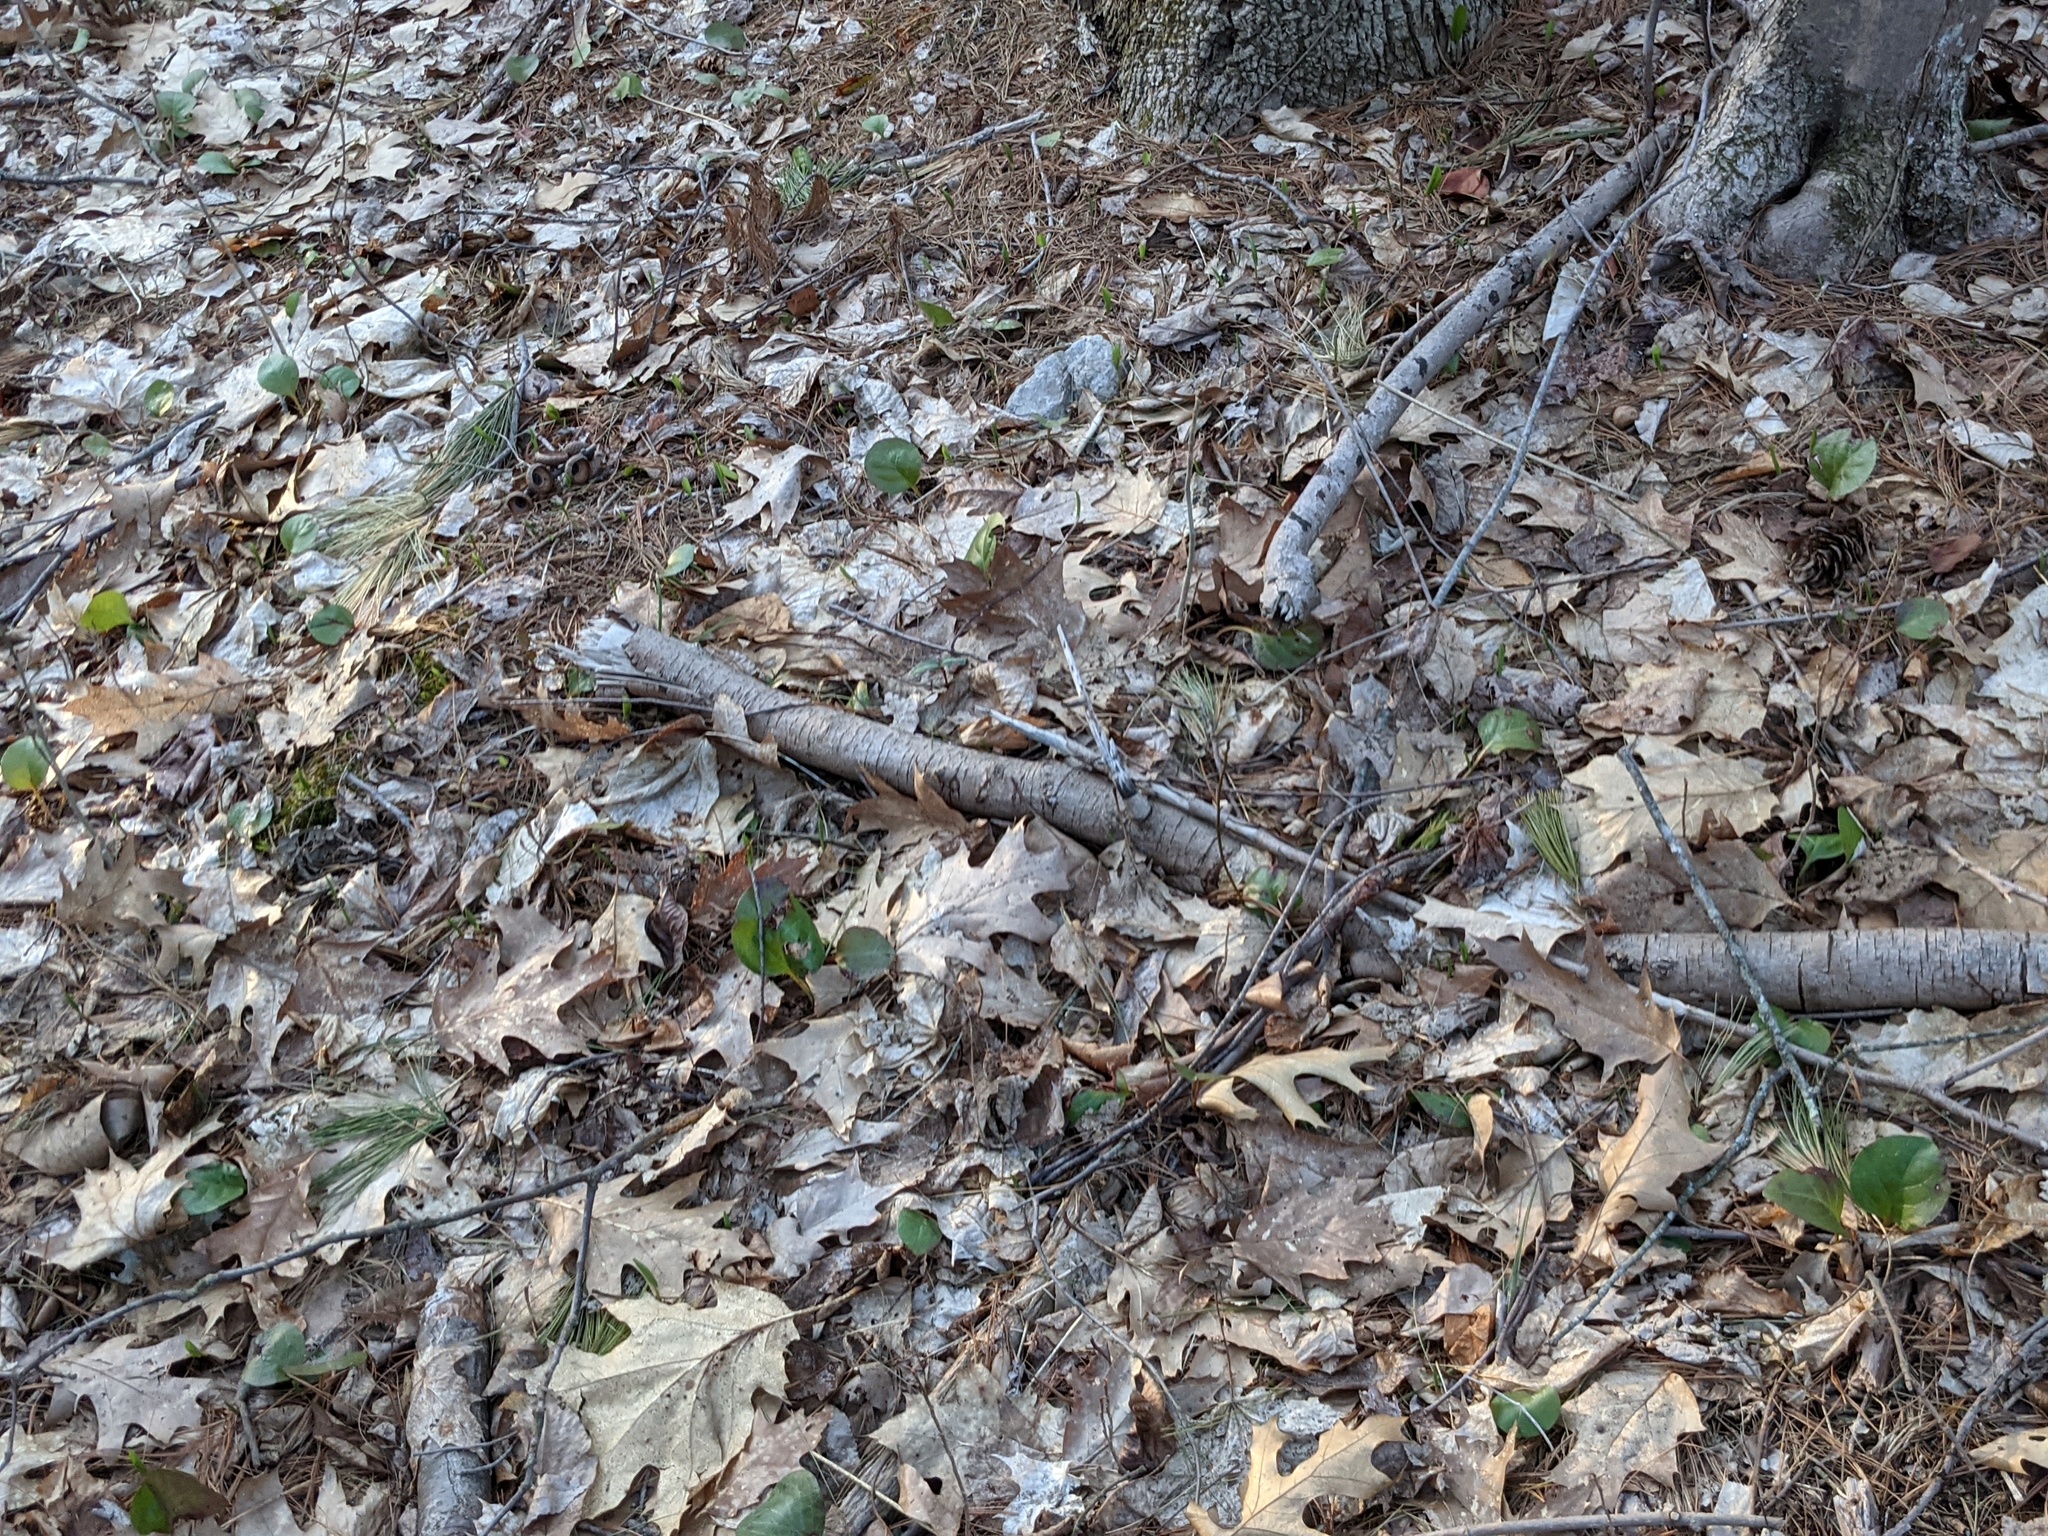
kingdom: Plantae
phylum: Tracheophyta
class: Magnoliopsida
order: Ericales
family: Ericaceae
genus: Pyrola
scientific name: Pyrola americana
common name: American wintergreen
